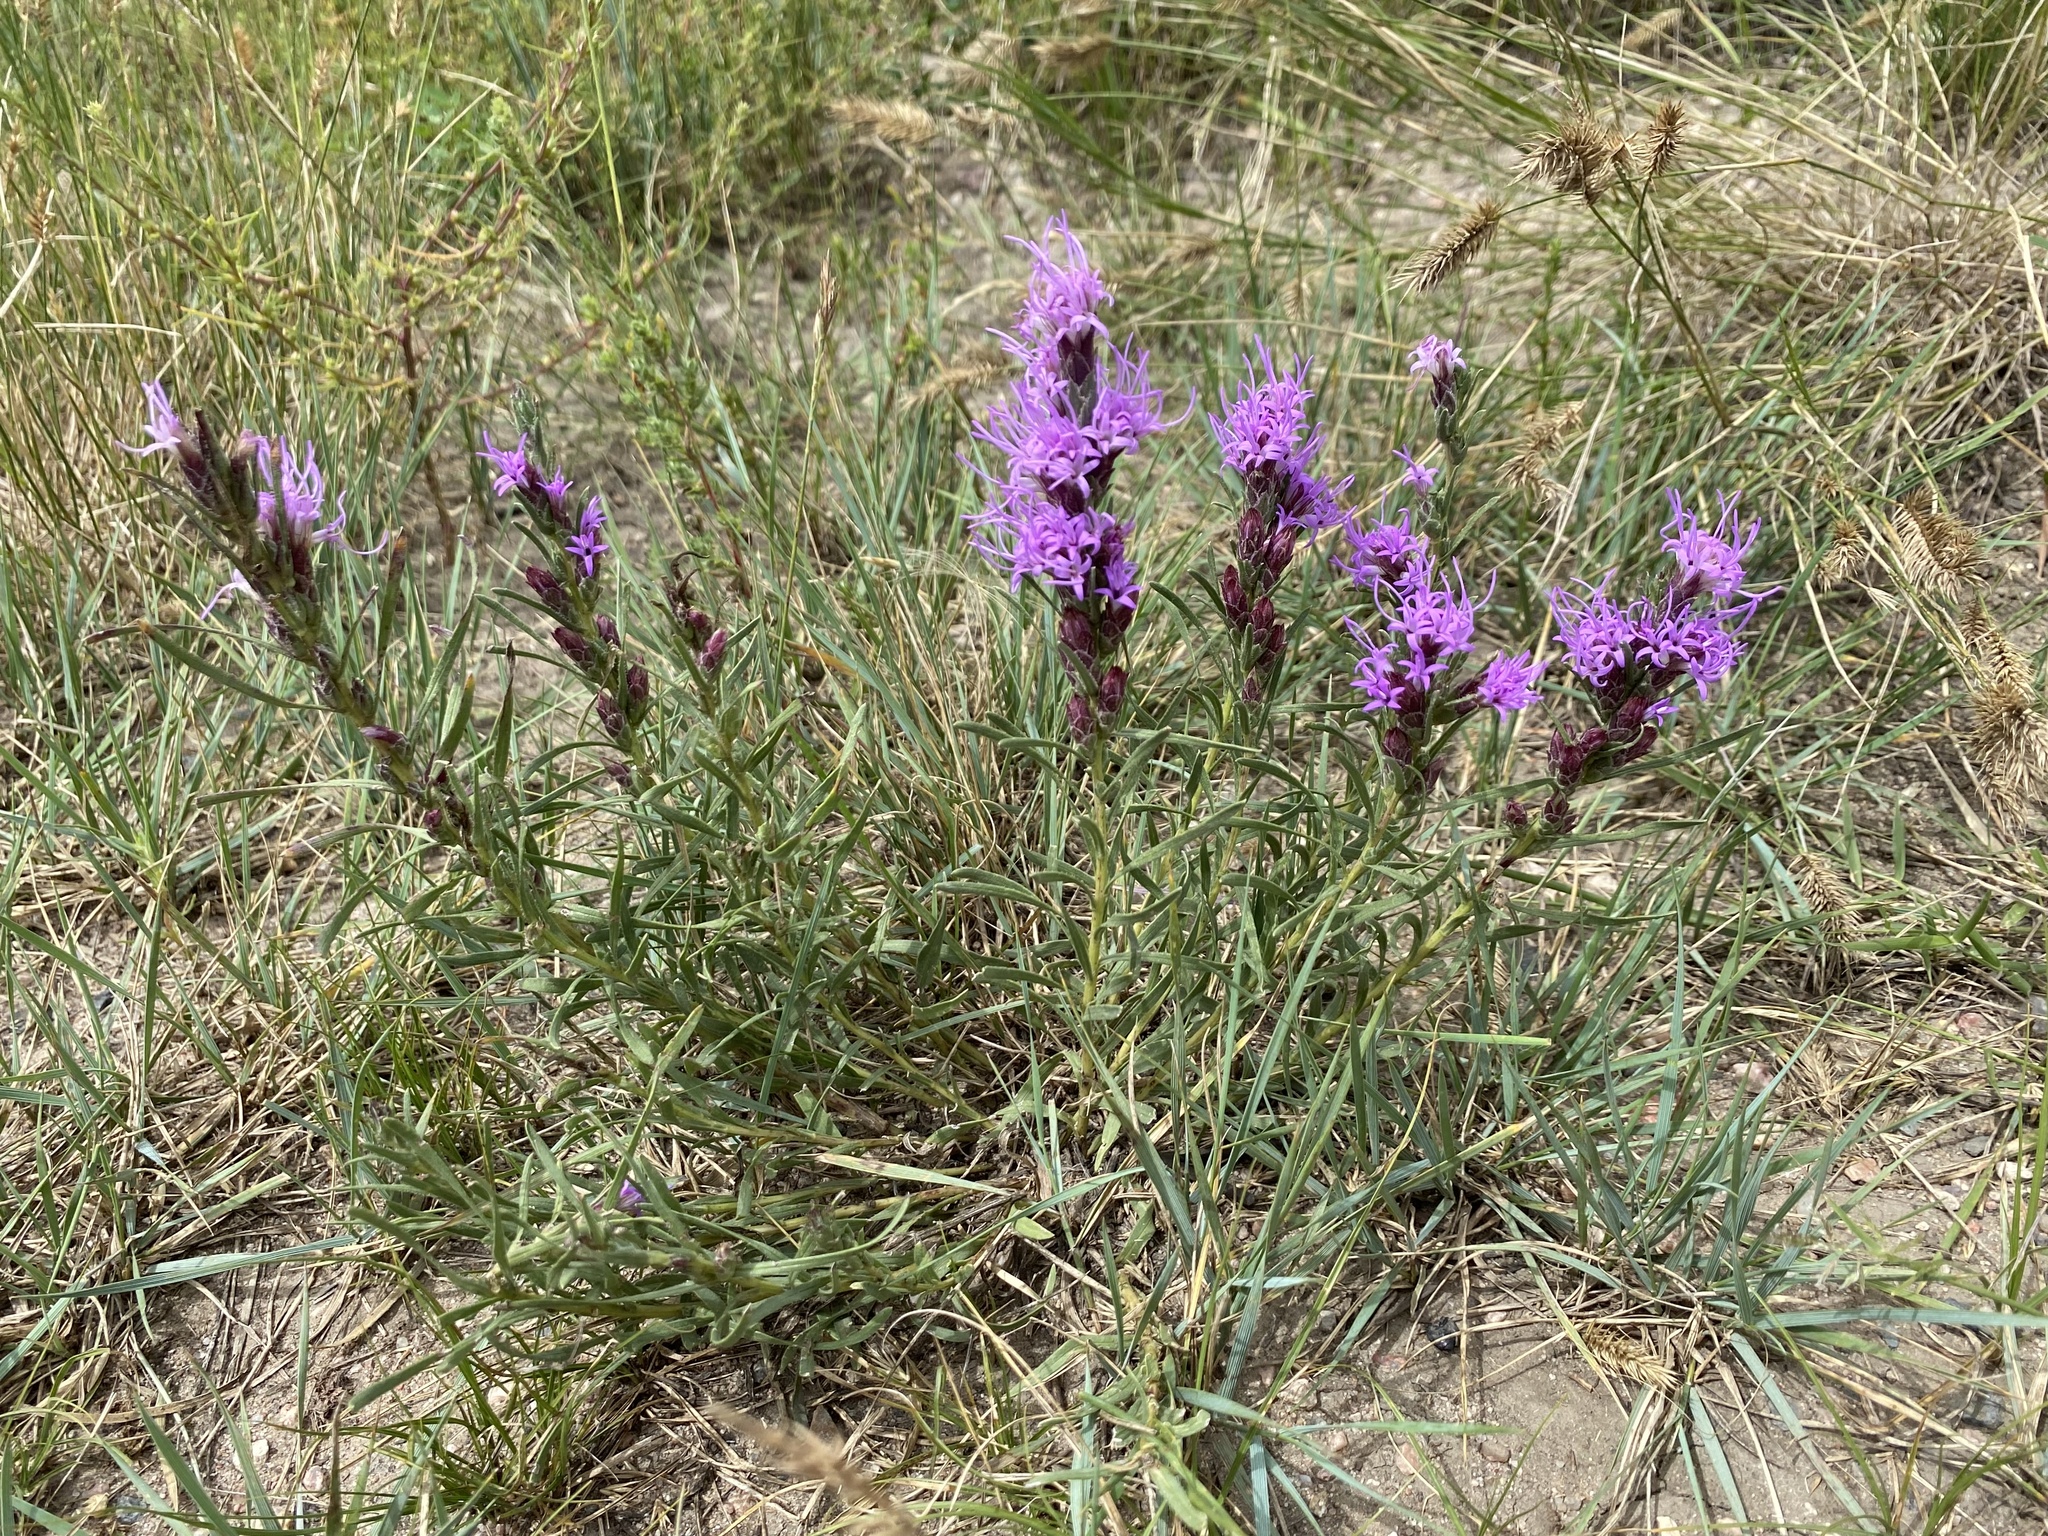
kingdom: Plantae
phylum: Tracheophyta
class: Magnoliopsida
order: Asterales
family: Asteraceae
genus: Liatris
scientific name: Liatris punctata
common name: Dotted gayfeather
